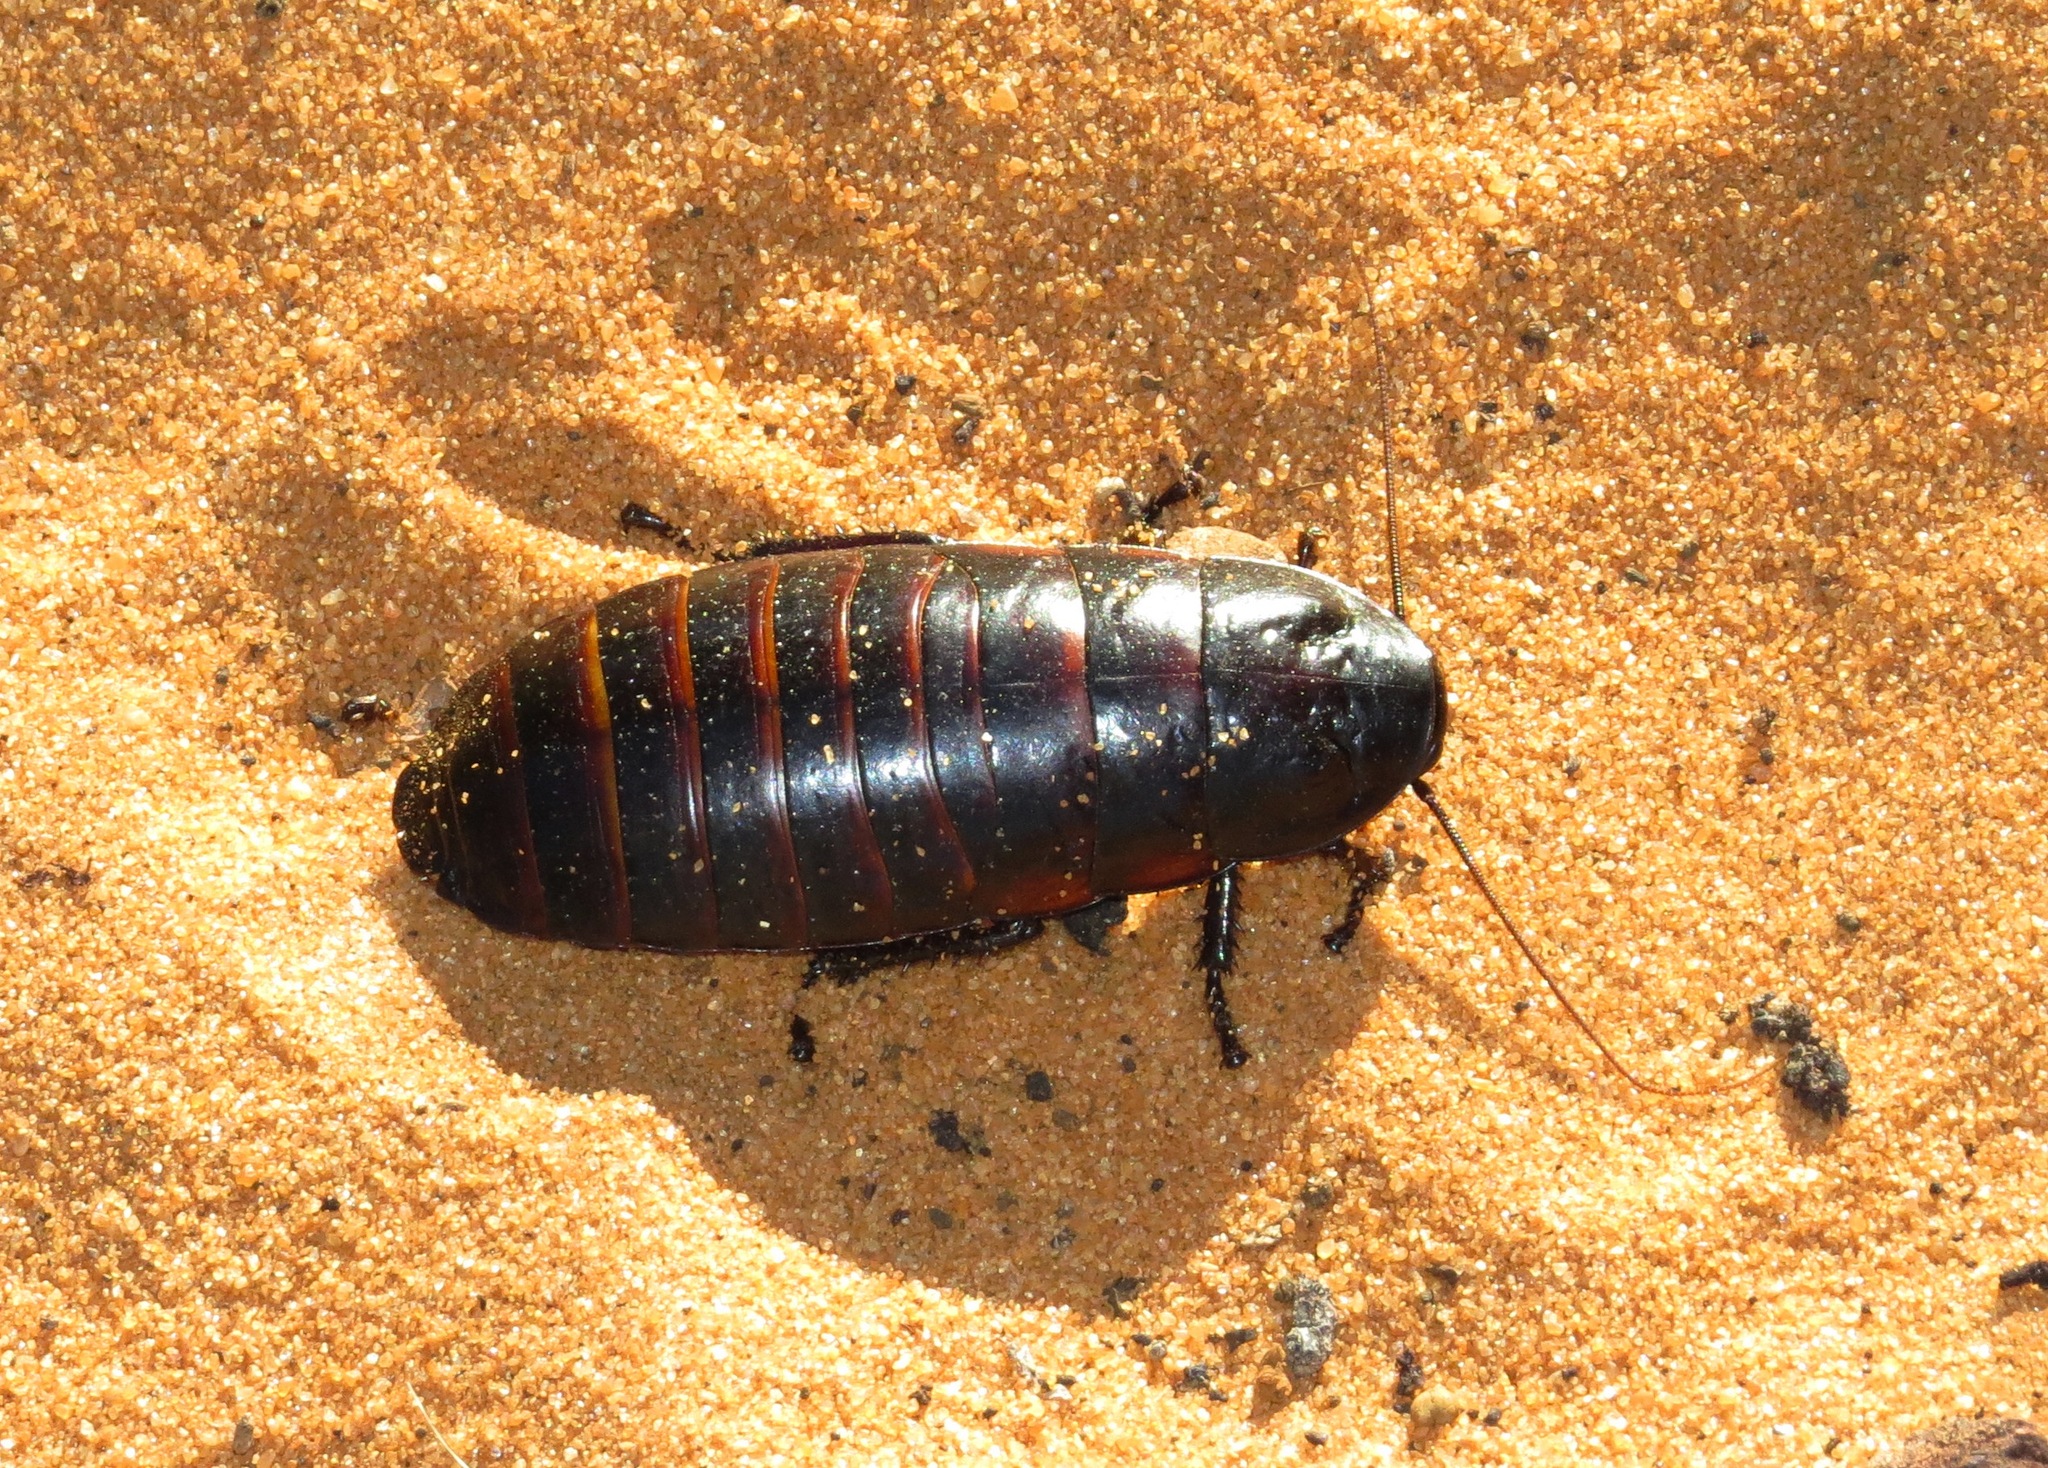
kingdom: Animalia
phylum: Arthropoda
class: Insecta
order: Blattodea
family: Blaberidae
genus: Elliptorhina
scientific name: Elliptorhina laevigata
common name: V-horn hissing cockroach
